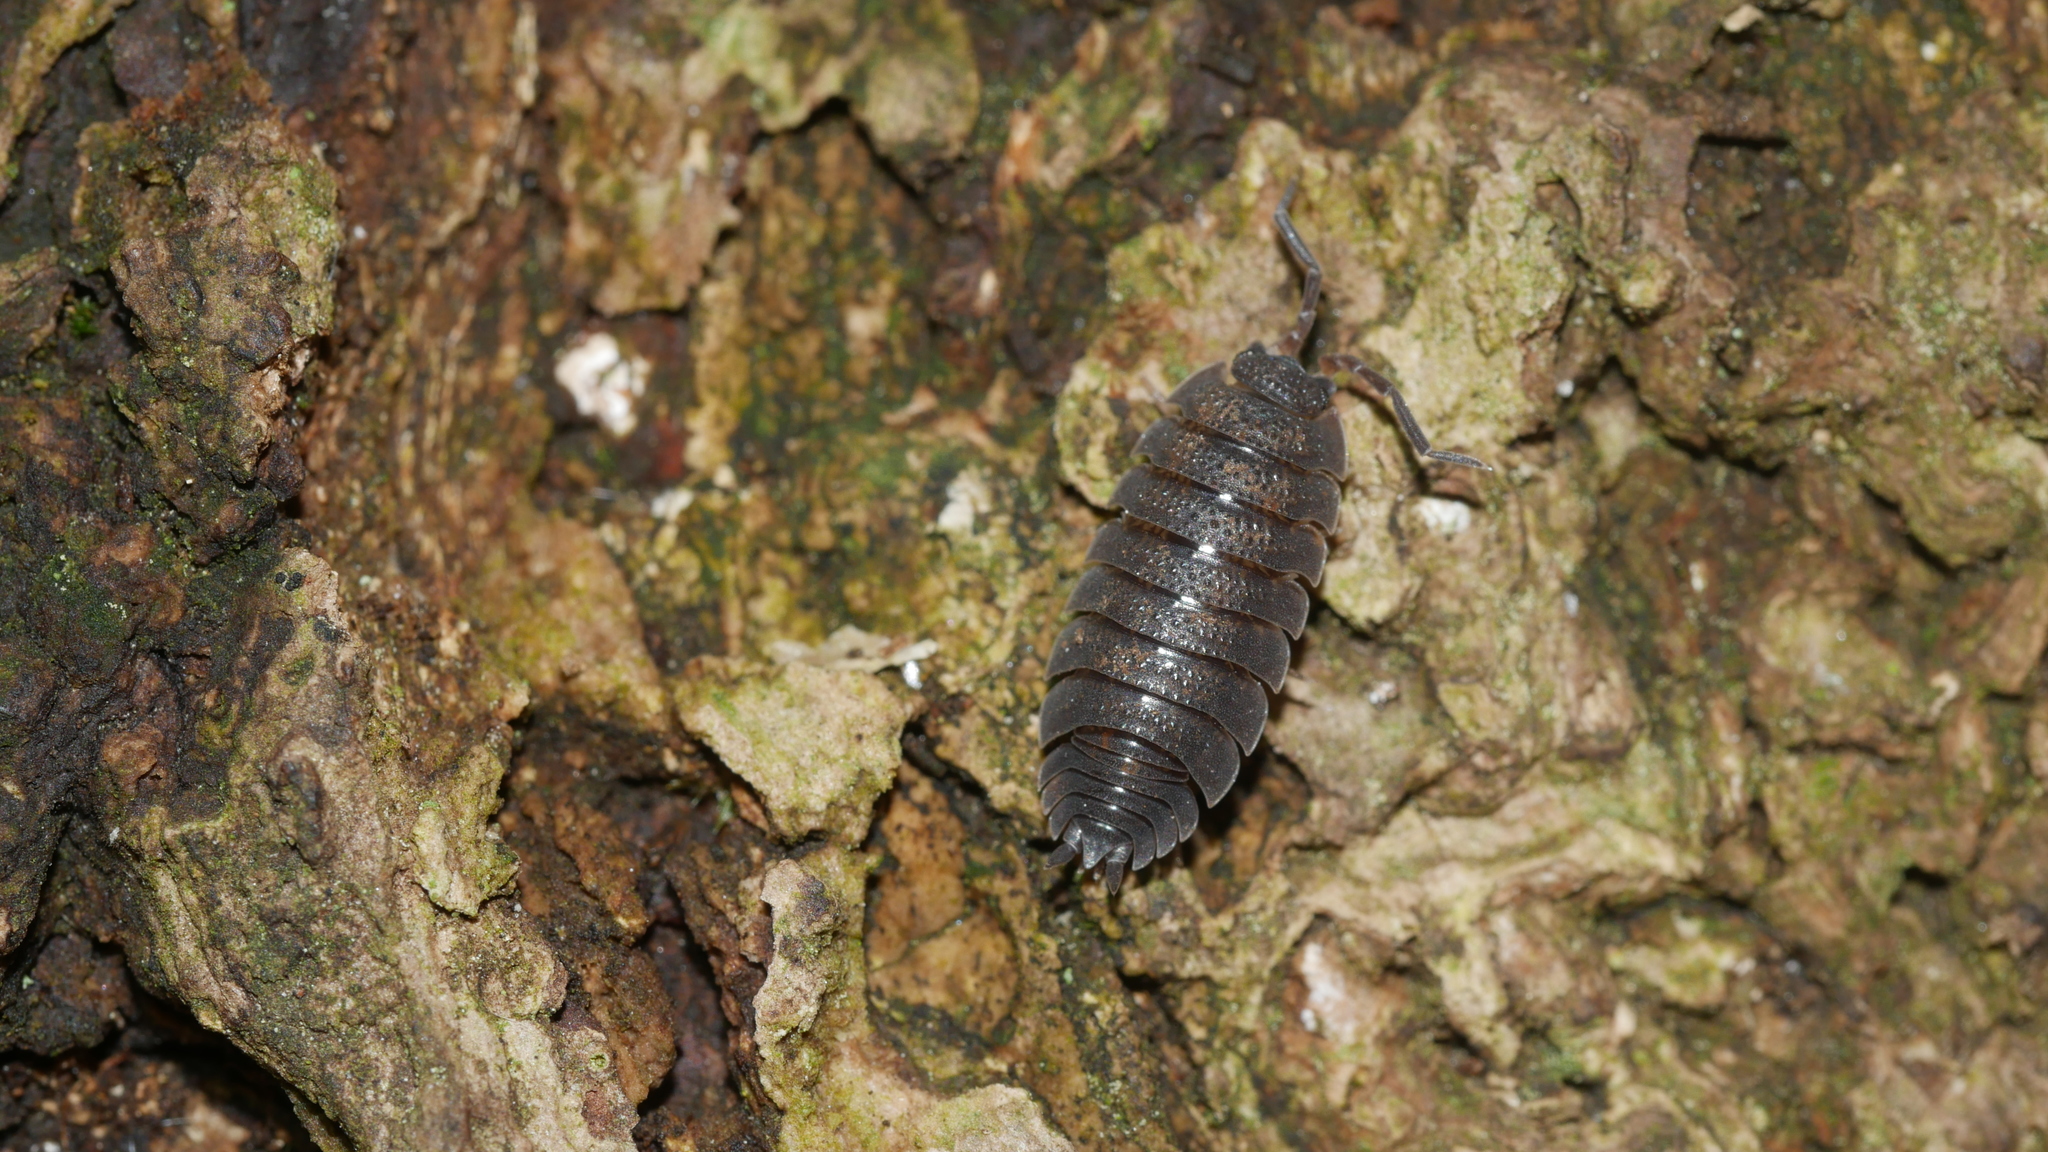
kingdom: Animalia
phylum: Arthropoda
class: Malacostraca
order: Isopoda
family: Porcellionidae
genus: Porcellio
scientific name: Porcellio scaber
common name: Common rough woodlouse
